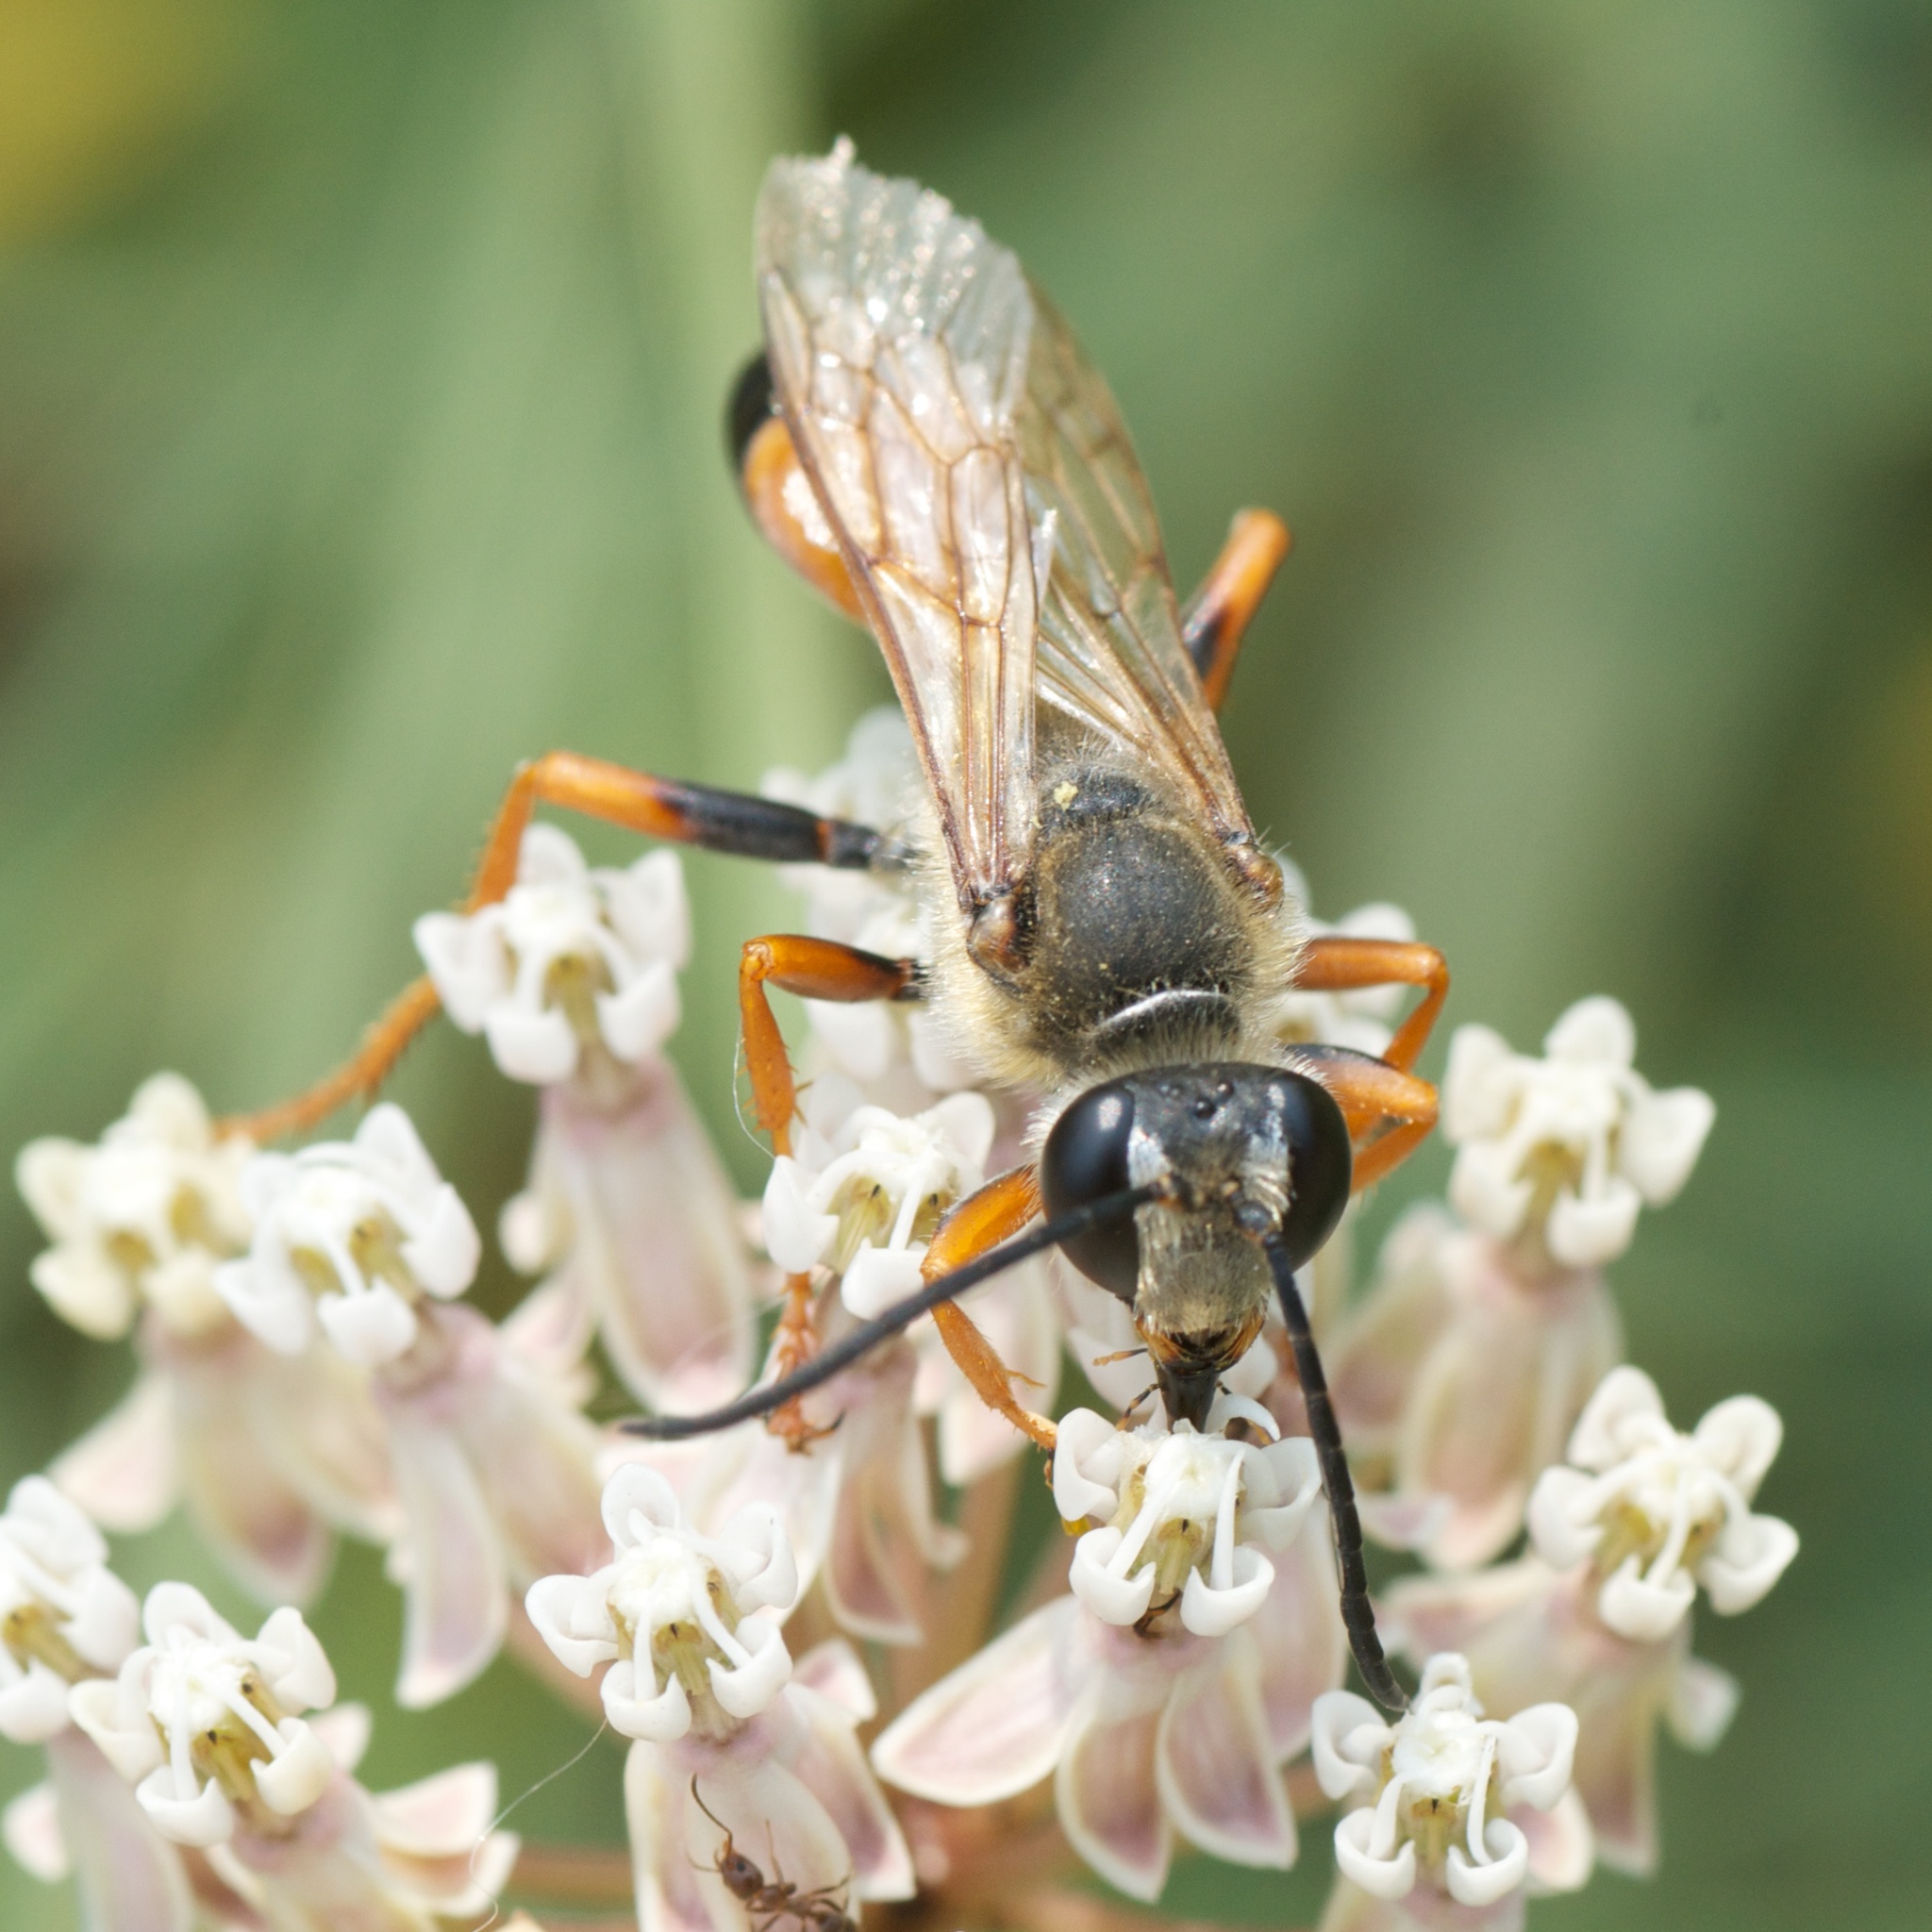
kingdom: Animalia
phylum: Arthropoda
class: Insecta
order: Hymenoptera
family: Sphecidae
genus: Sphex
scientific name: Sphex ichneumoneus
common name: Great golden digger wasp
